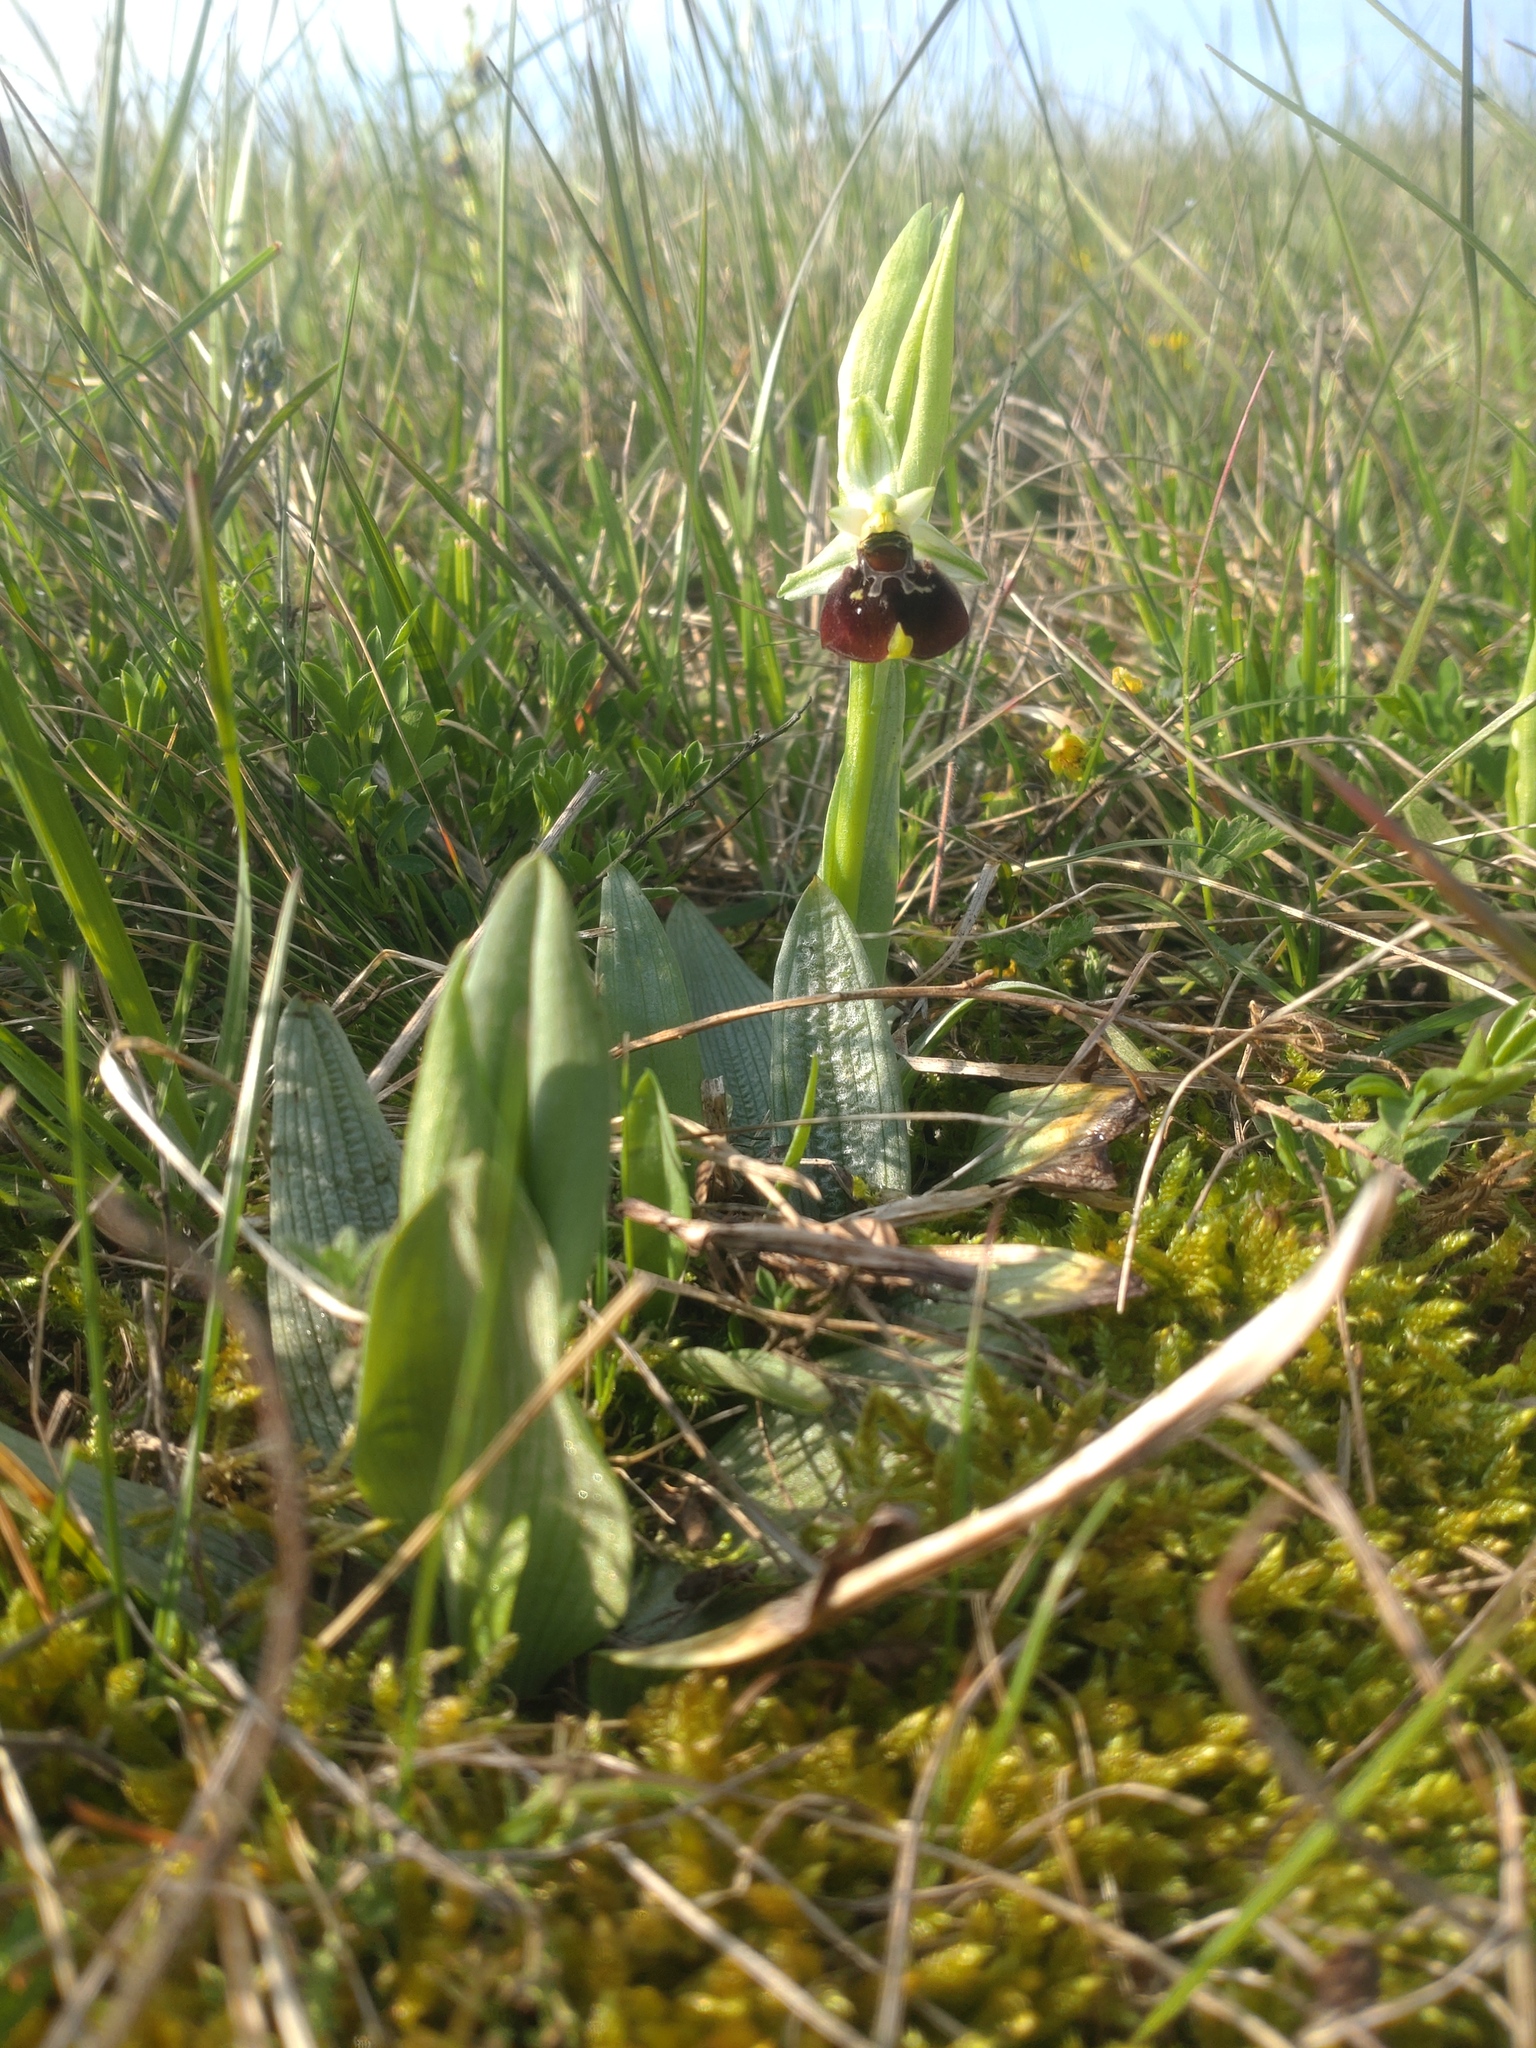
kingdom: Plantae
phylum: Tracheophyta
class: Liliopsida
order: Asparagales
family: Orchidaceae
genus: Ophrys
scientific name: Ophrys holosericea
